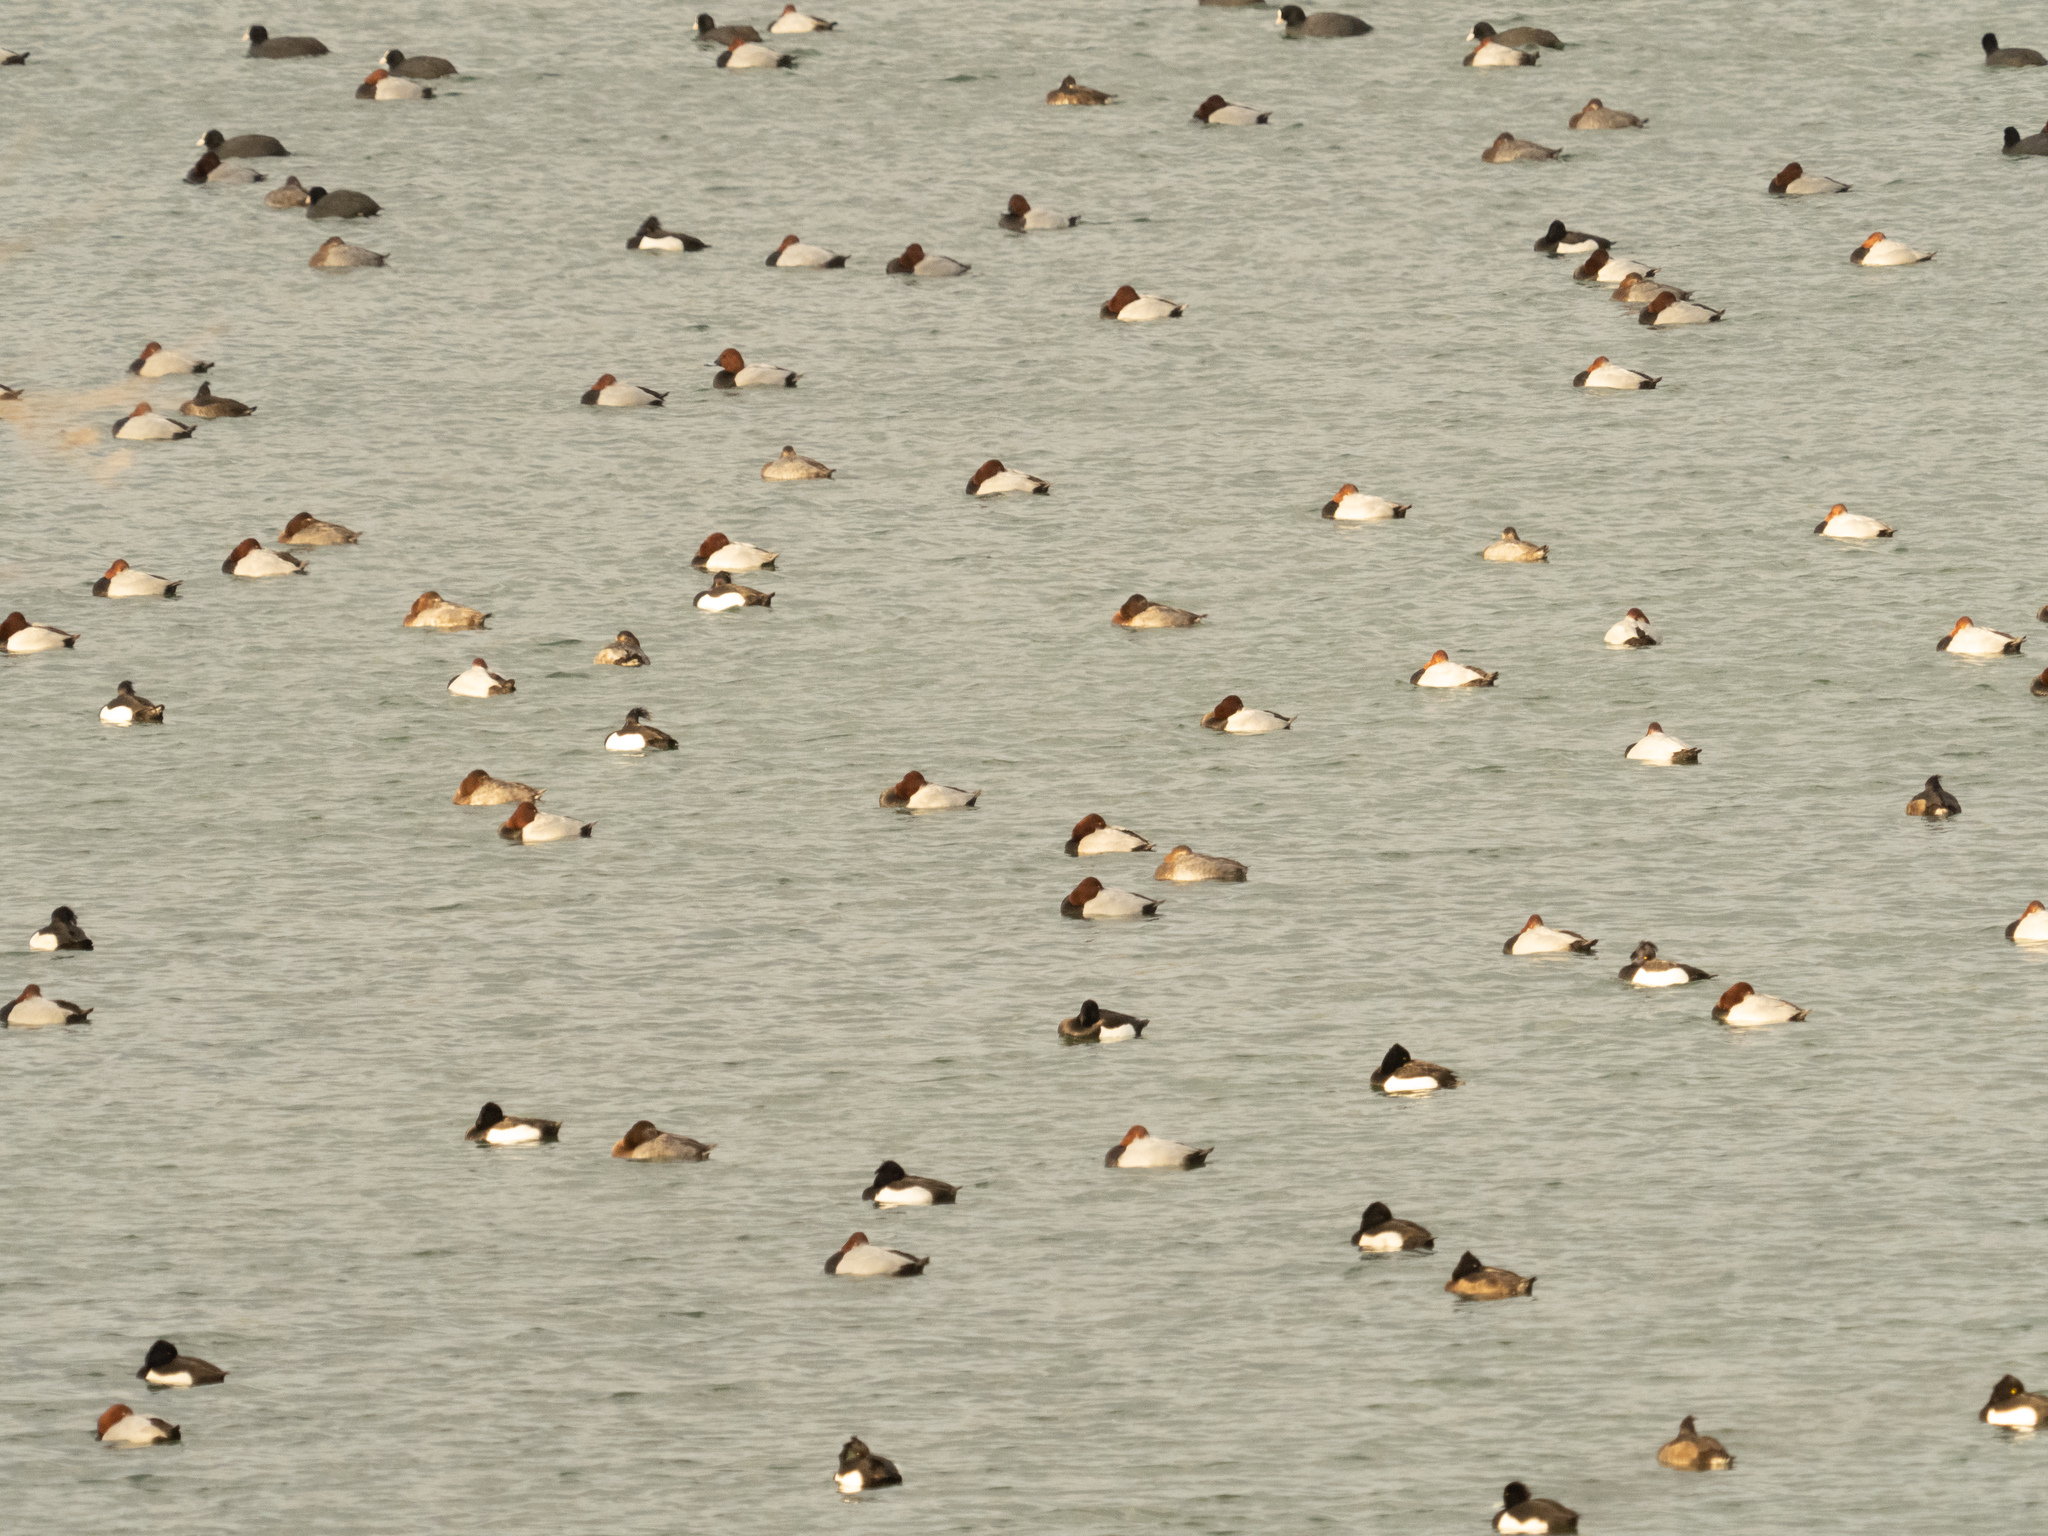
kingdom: Animalia
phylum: Chordata
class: Aves
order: Anseriformes
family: Anatidae
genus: Aythya
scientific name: Aythya ferina
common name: Common pochard
